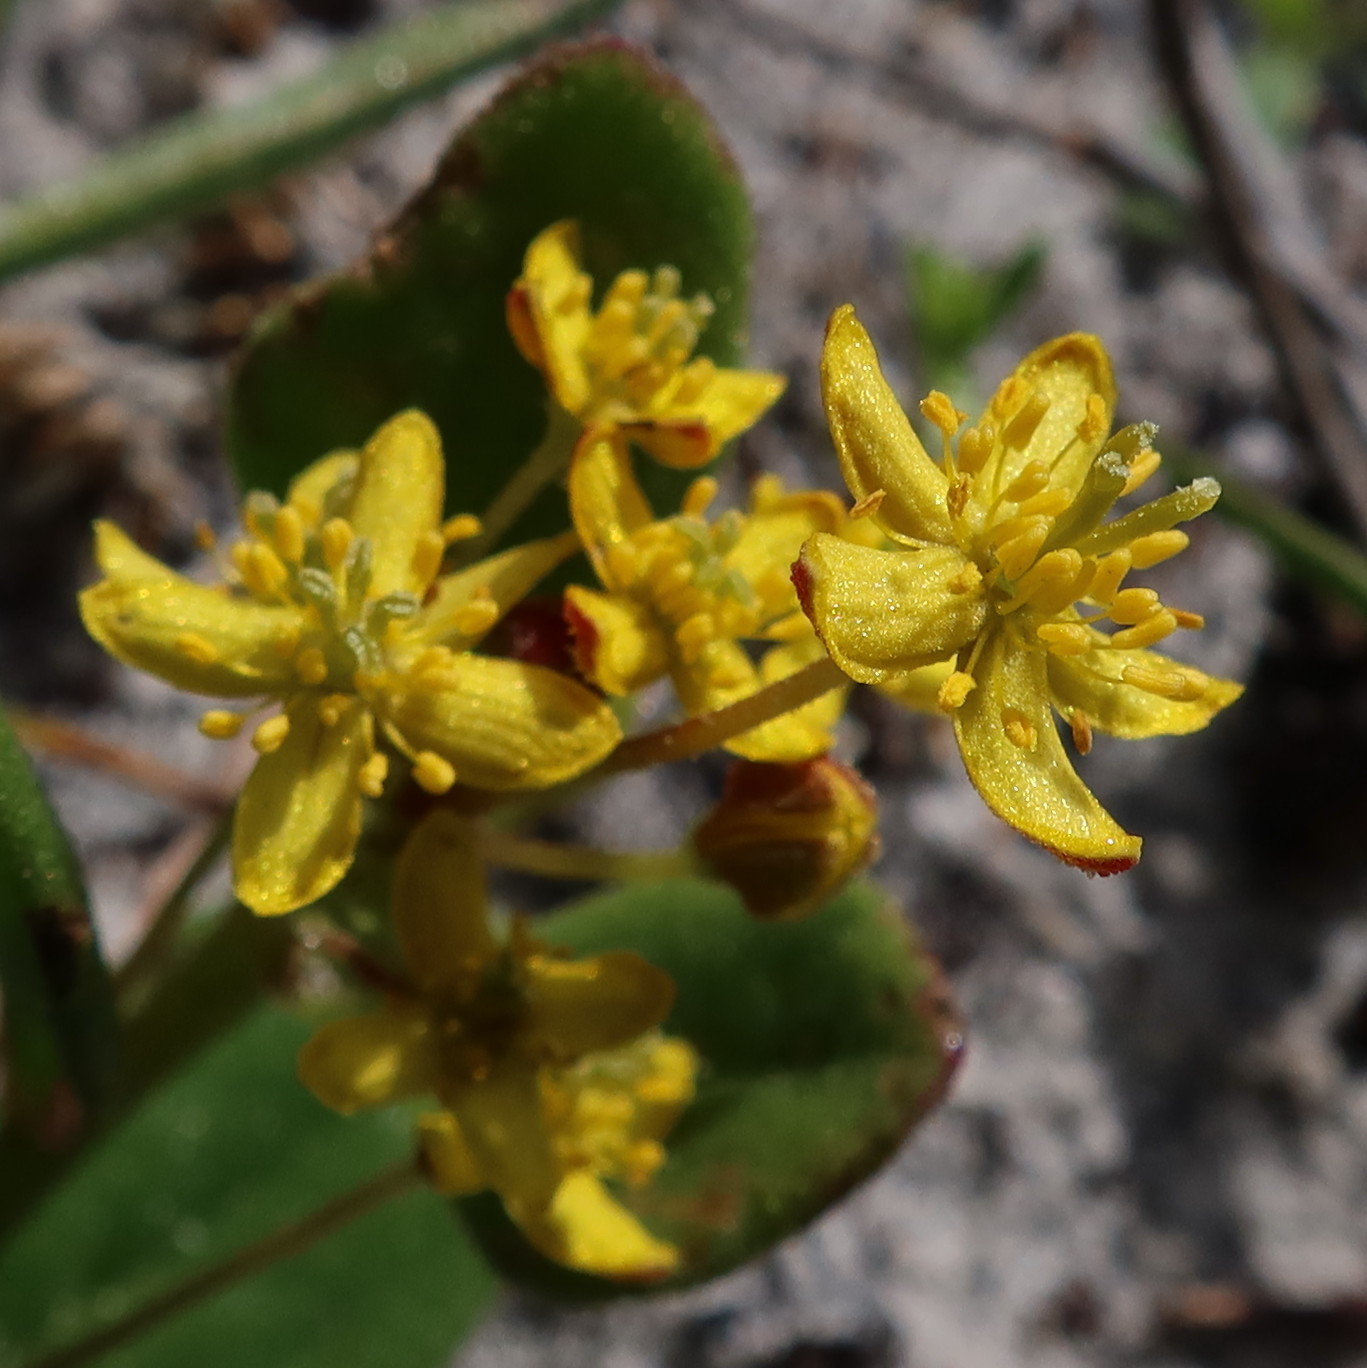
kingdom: Plantae
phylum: Tracheophyta
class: Magnoliopsida
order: Caryophyllales
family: Aizoaceae
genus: Tetragonia
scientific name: Tetragonia herbacea
